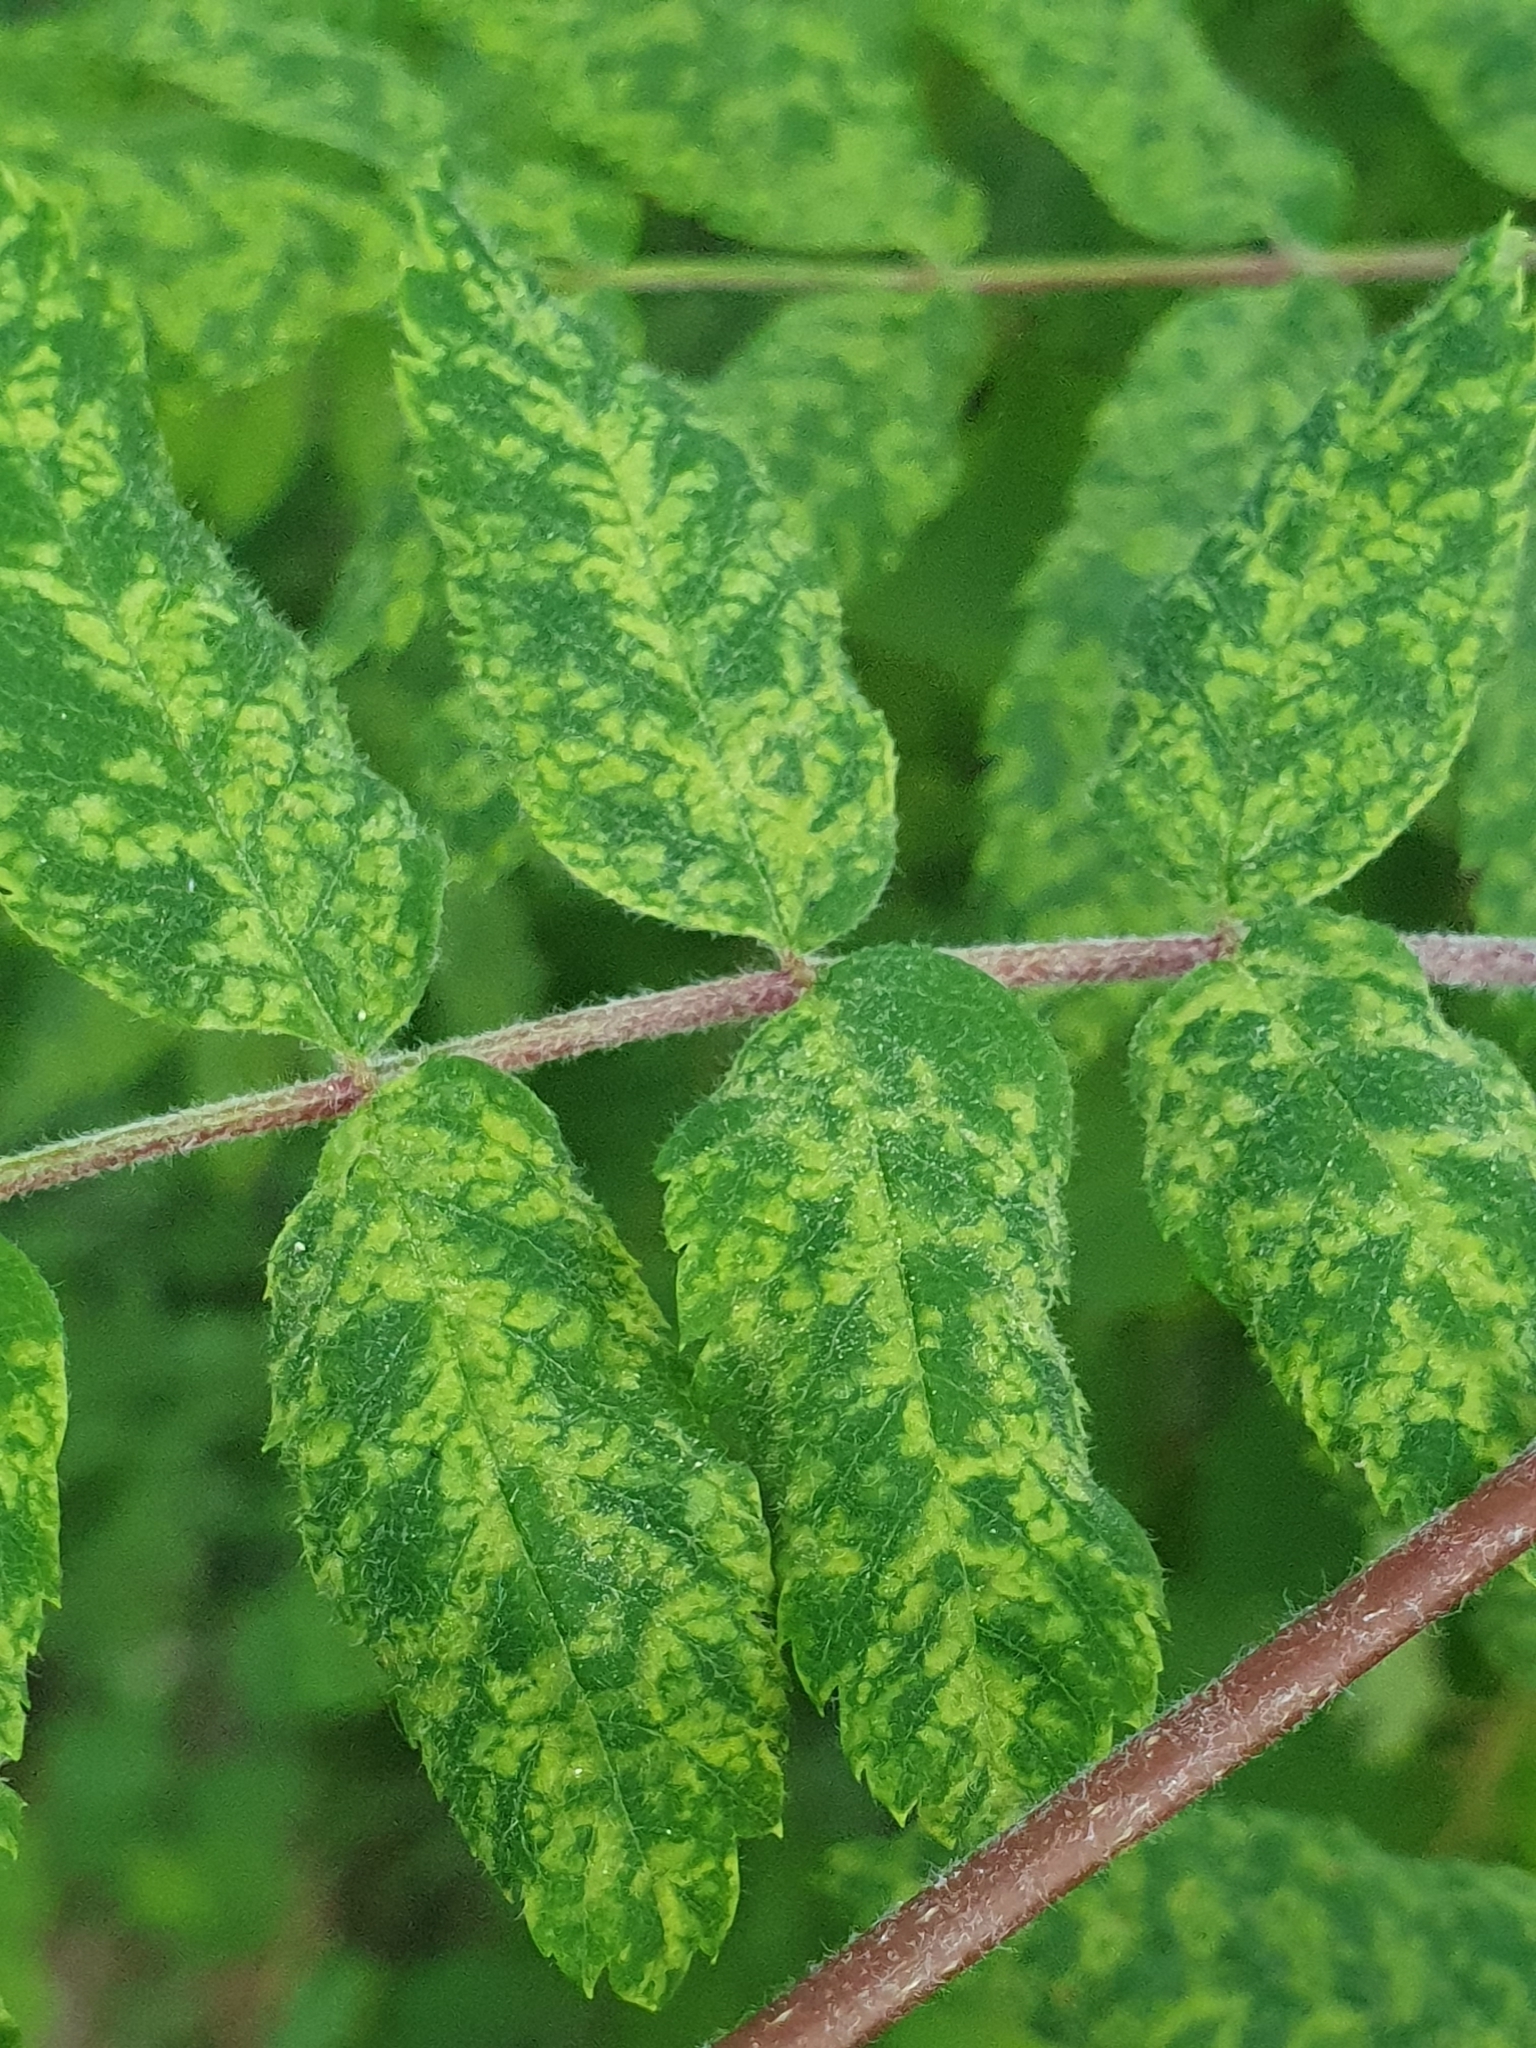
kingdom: Plantae
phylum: Tracheophyta
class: Magnoliopsida
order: Rosales
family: Rosaceae
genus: Sorbus
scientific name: Sorbus aucuparia
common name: Rowan
